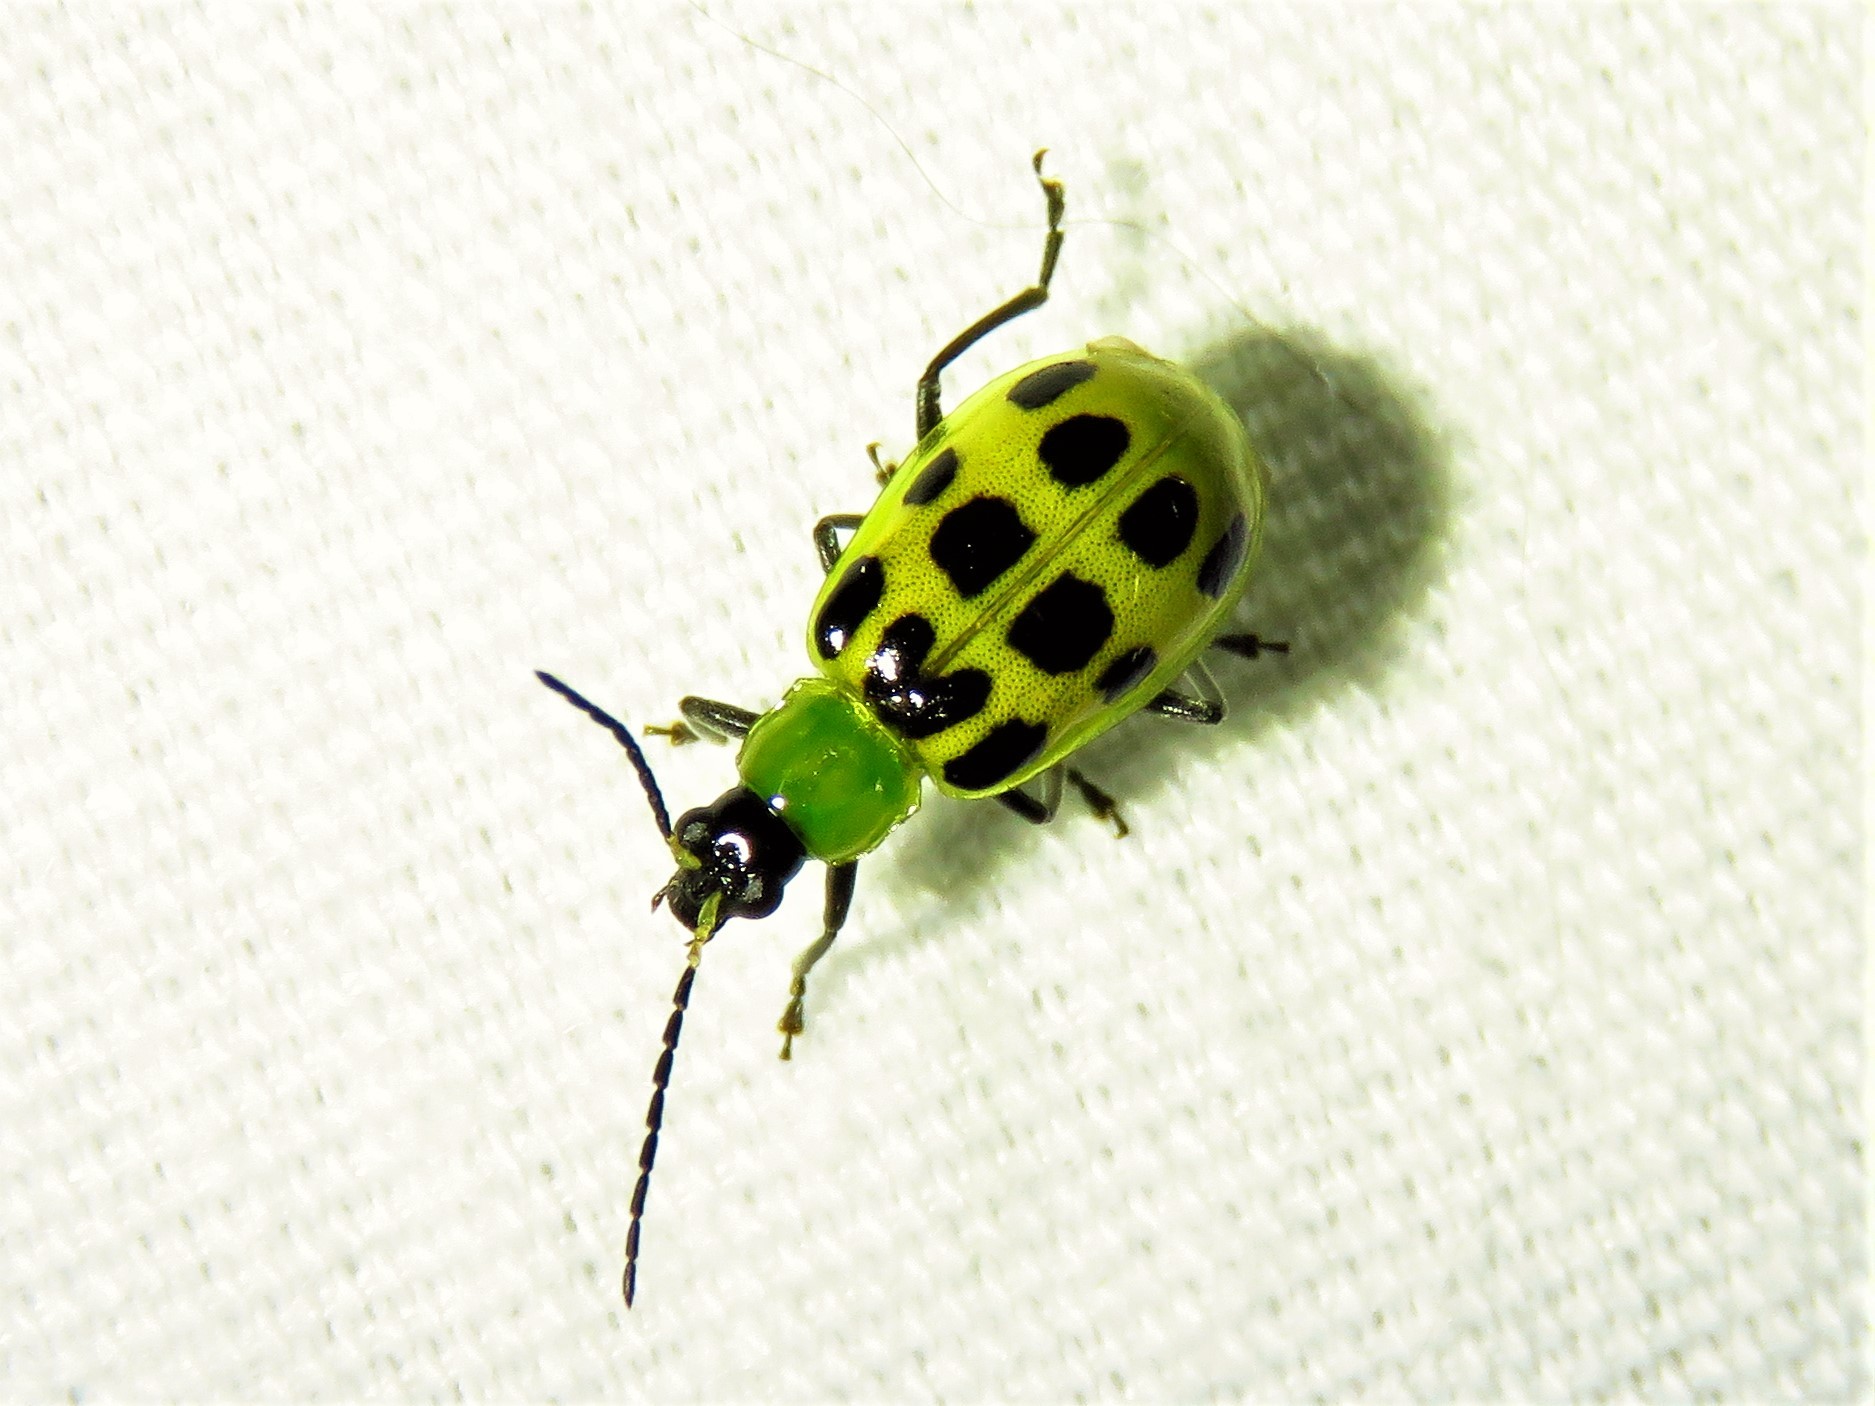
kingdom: Animalia
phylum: Arthropoda
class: Insecta
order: Coleoptera
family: Chrysomelidae
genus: Diabrotica
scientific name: Diabrotica undecimpunctata
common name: Spotted cucumber beetle
